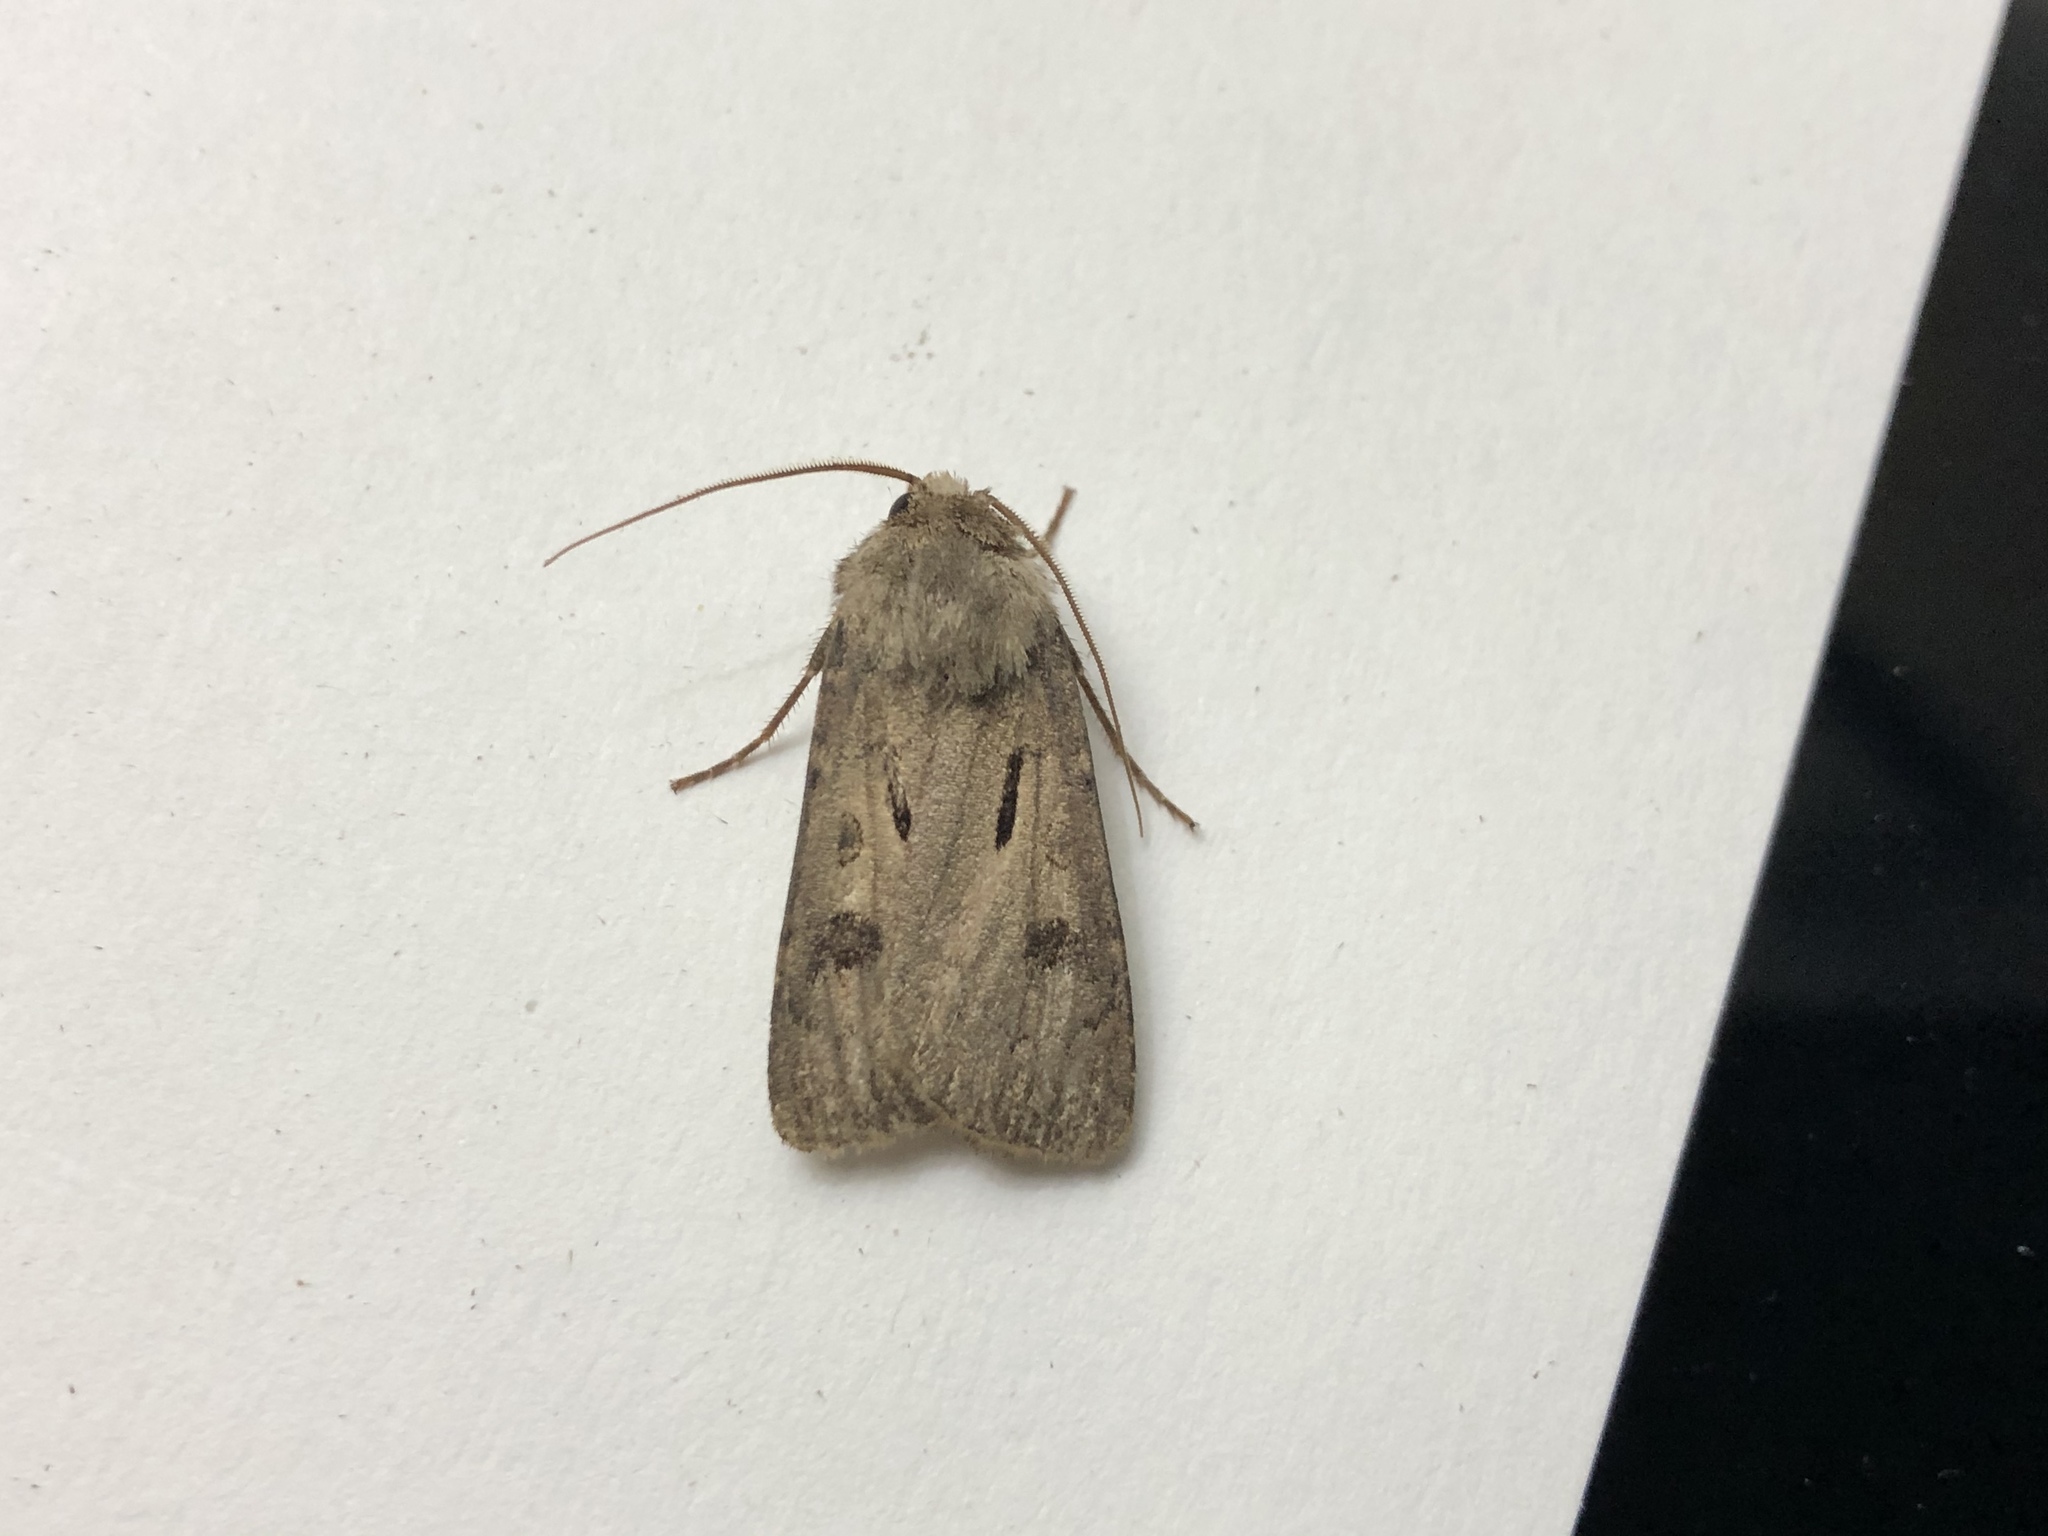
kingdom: Animalia
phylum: Arthropoda
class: Insecta
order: Lepidoptera
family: Noctuidae
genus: Agrotis
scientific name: Agrotis exclamationis
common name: Heart and dart
